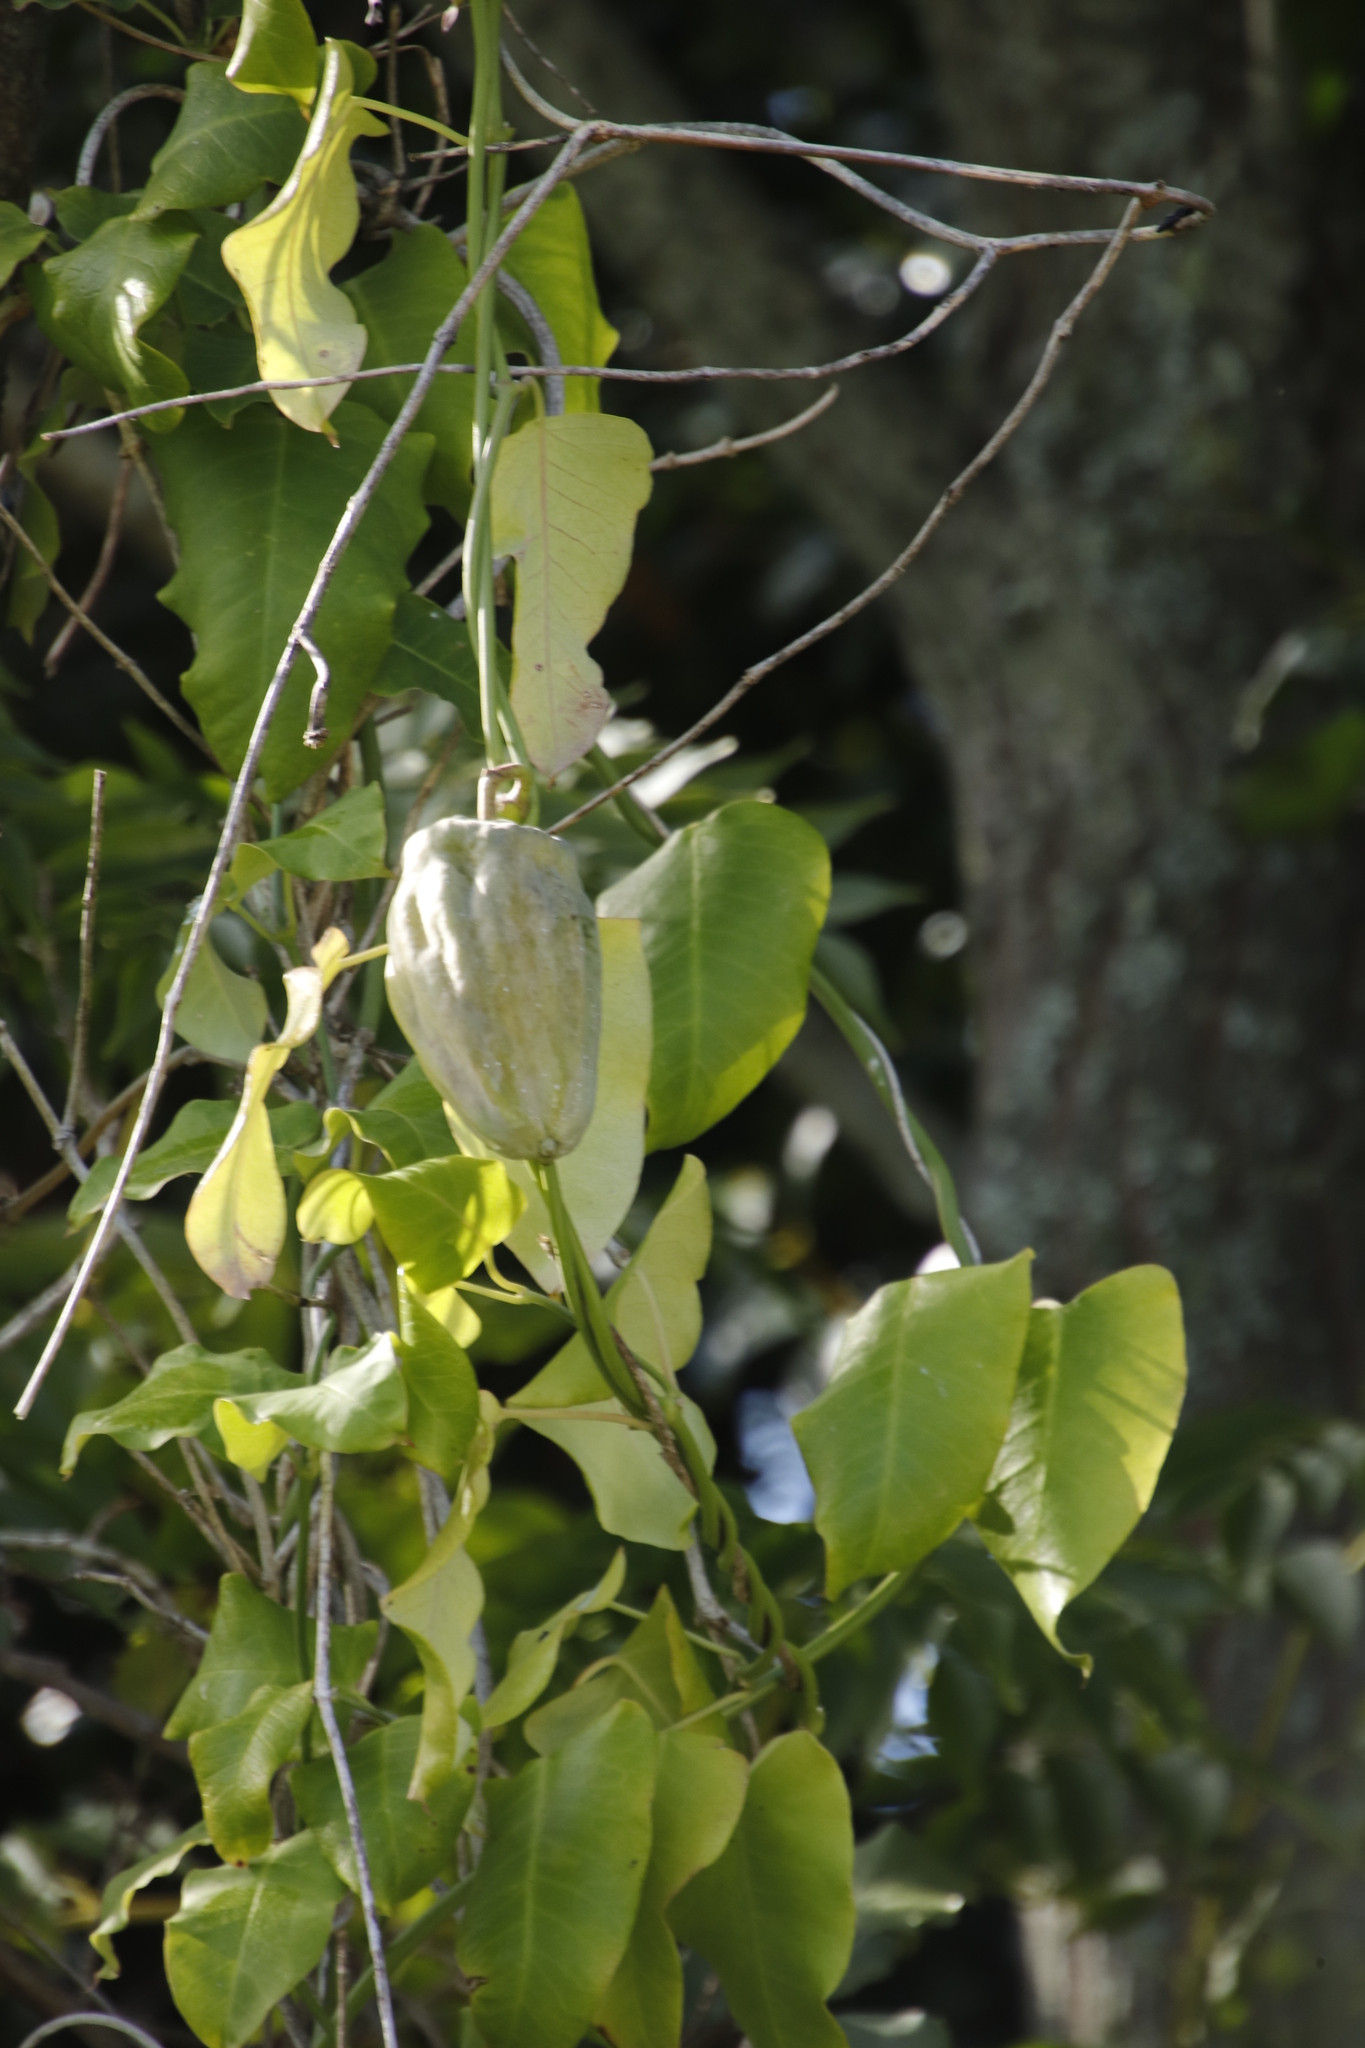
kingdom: Plantae
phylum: Tracheophyta
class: Magnoliopsida
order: Gentianales
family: Apocynaceae
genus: Araujia
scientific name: Araujia sericifera
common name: White bladderflower
